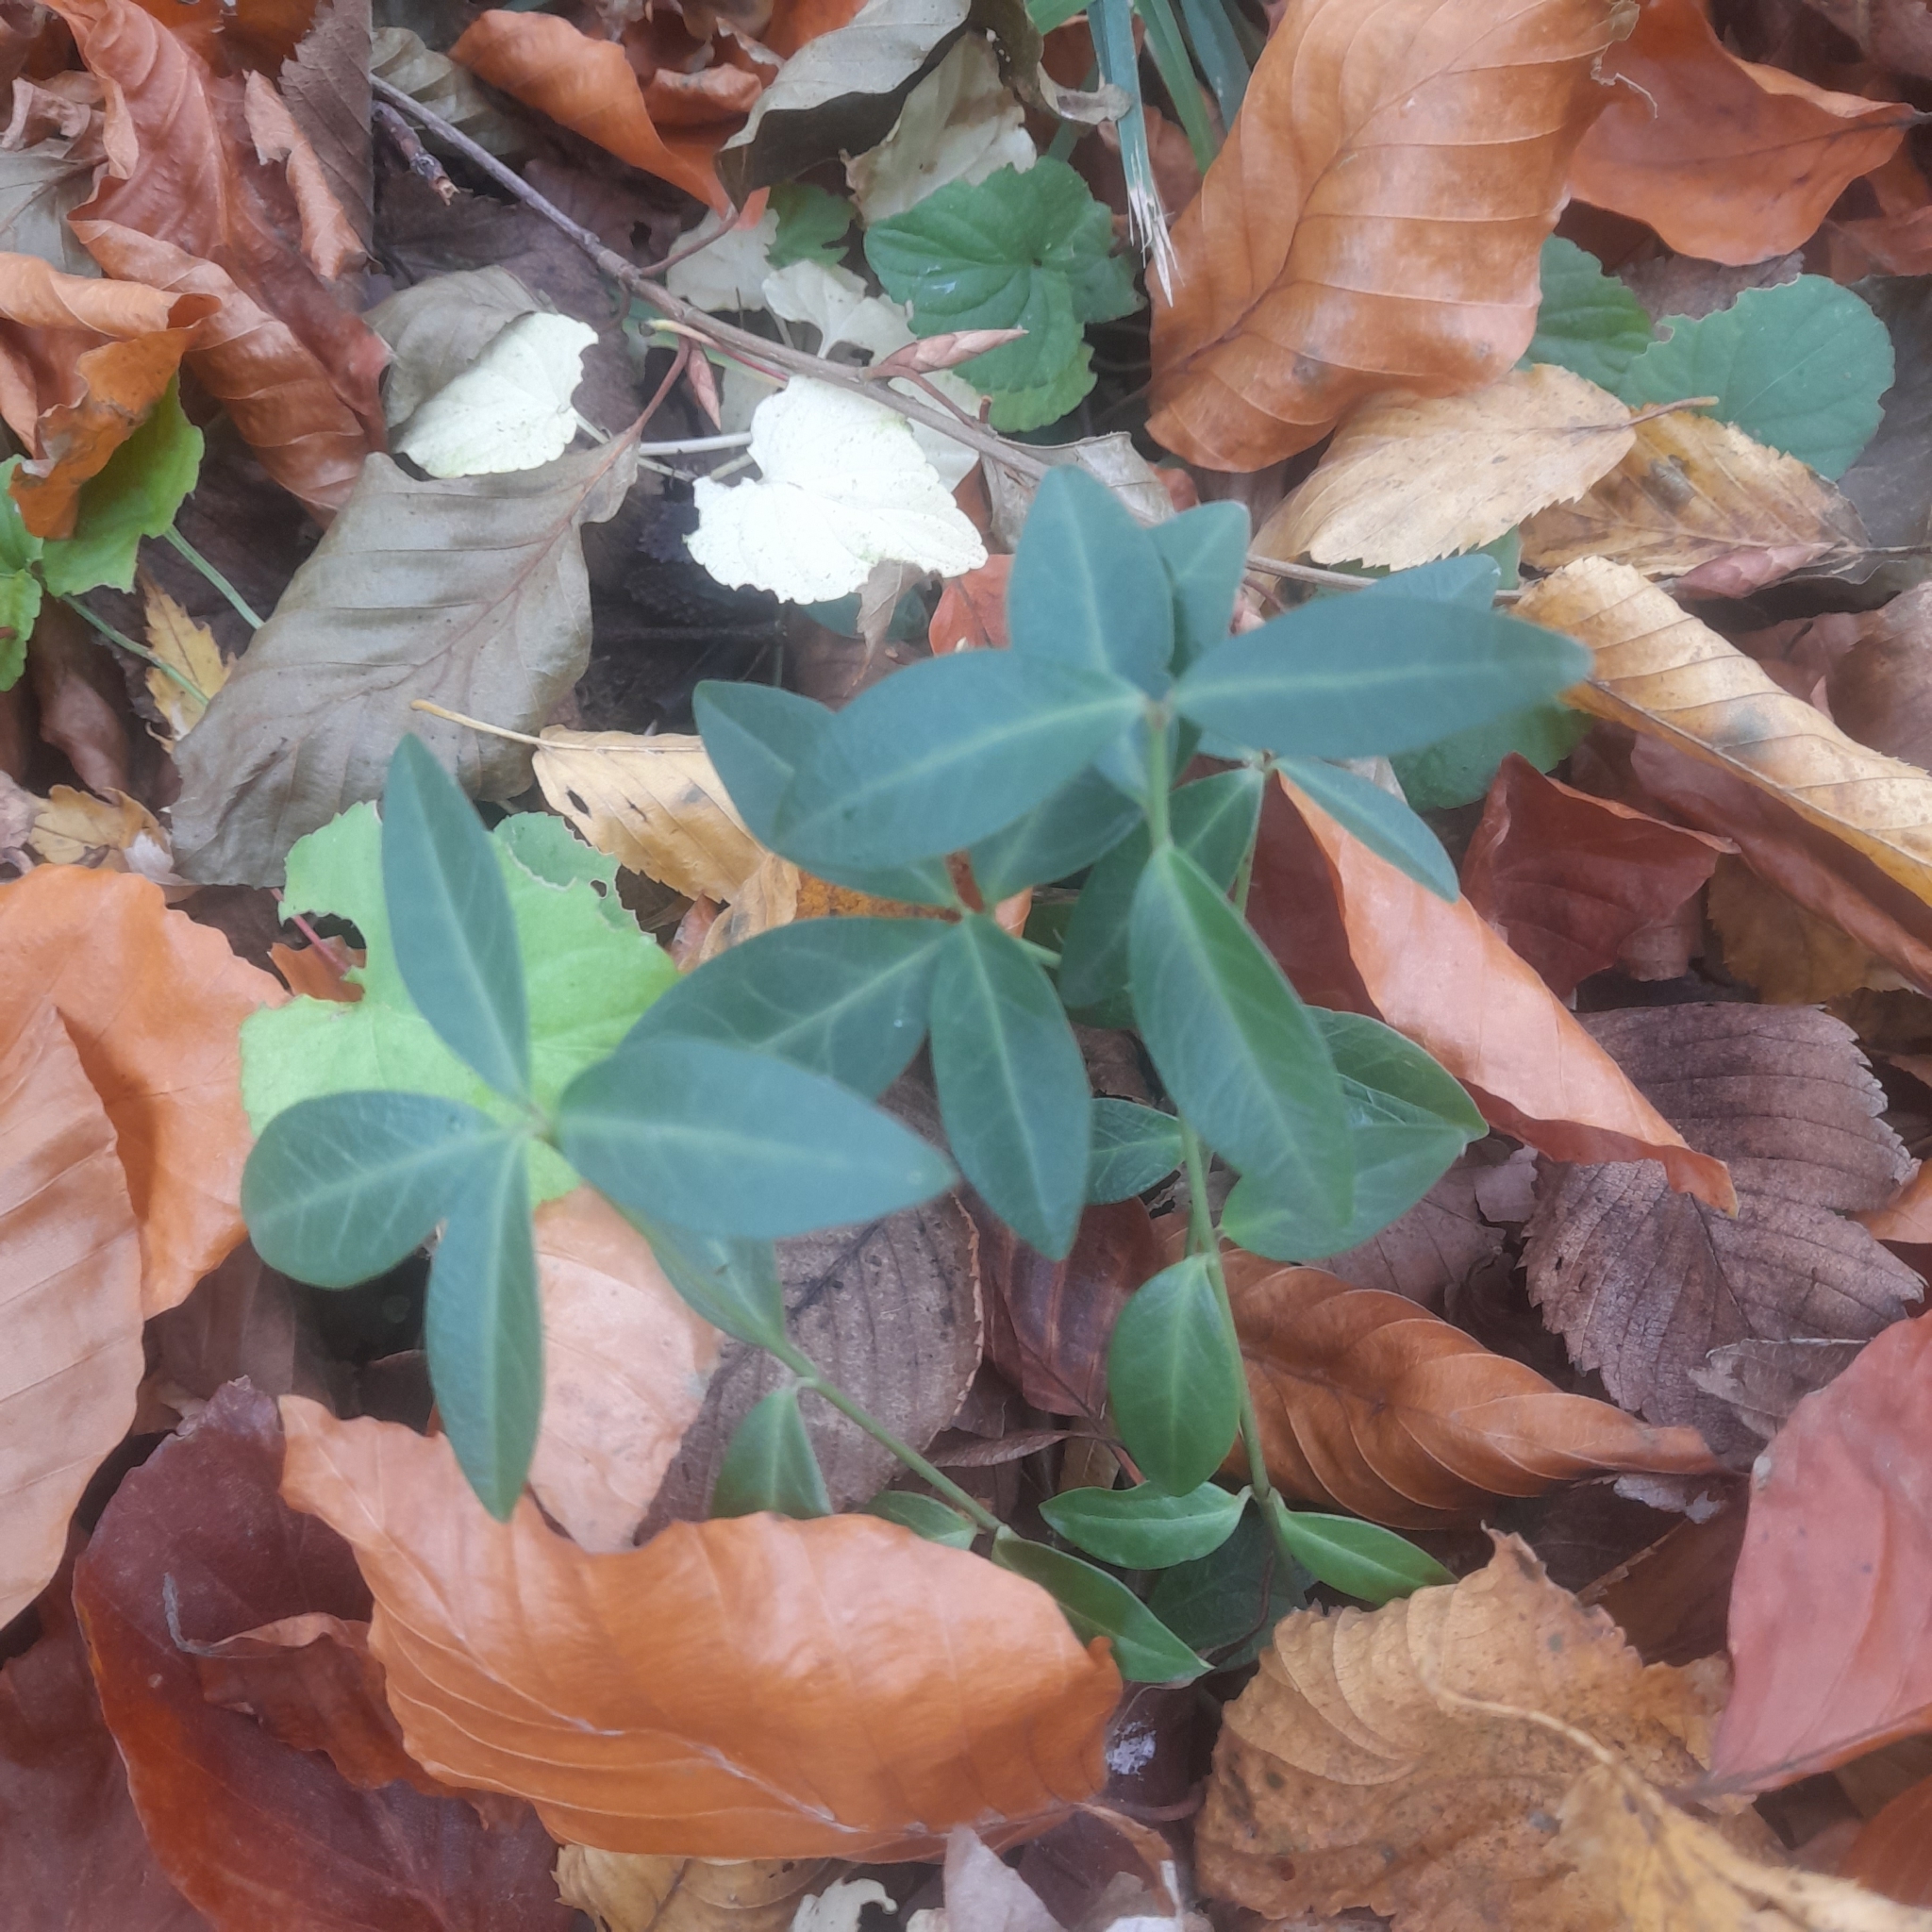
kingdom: Plantae
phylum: Tracheophyta
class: Magnoliopsida
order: Gentianales
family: Apocynaceae
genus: Vinca
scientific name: Vinca minor
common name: Lesser periwinkle
